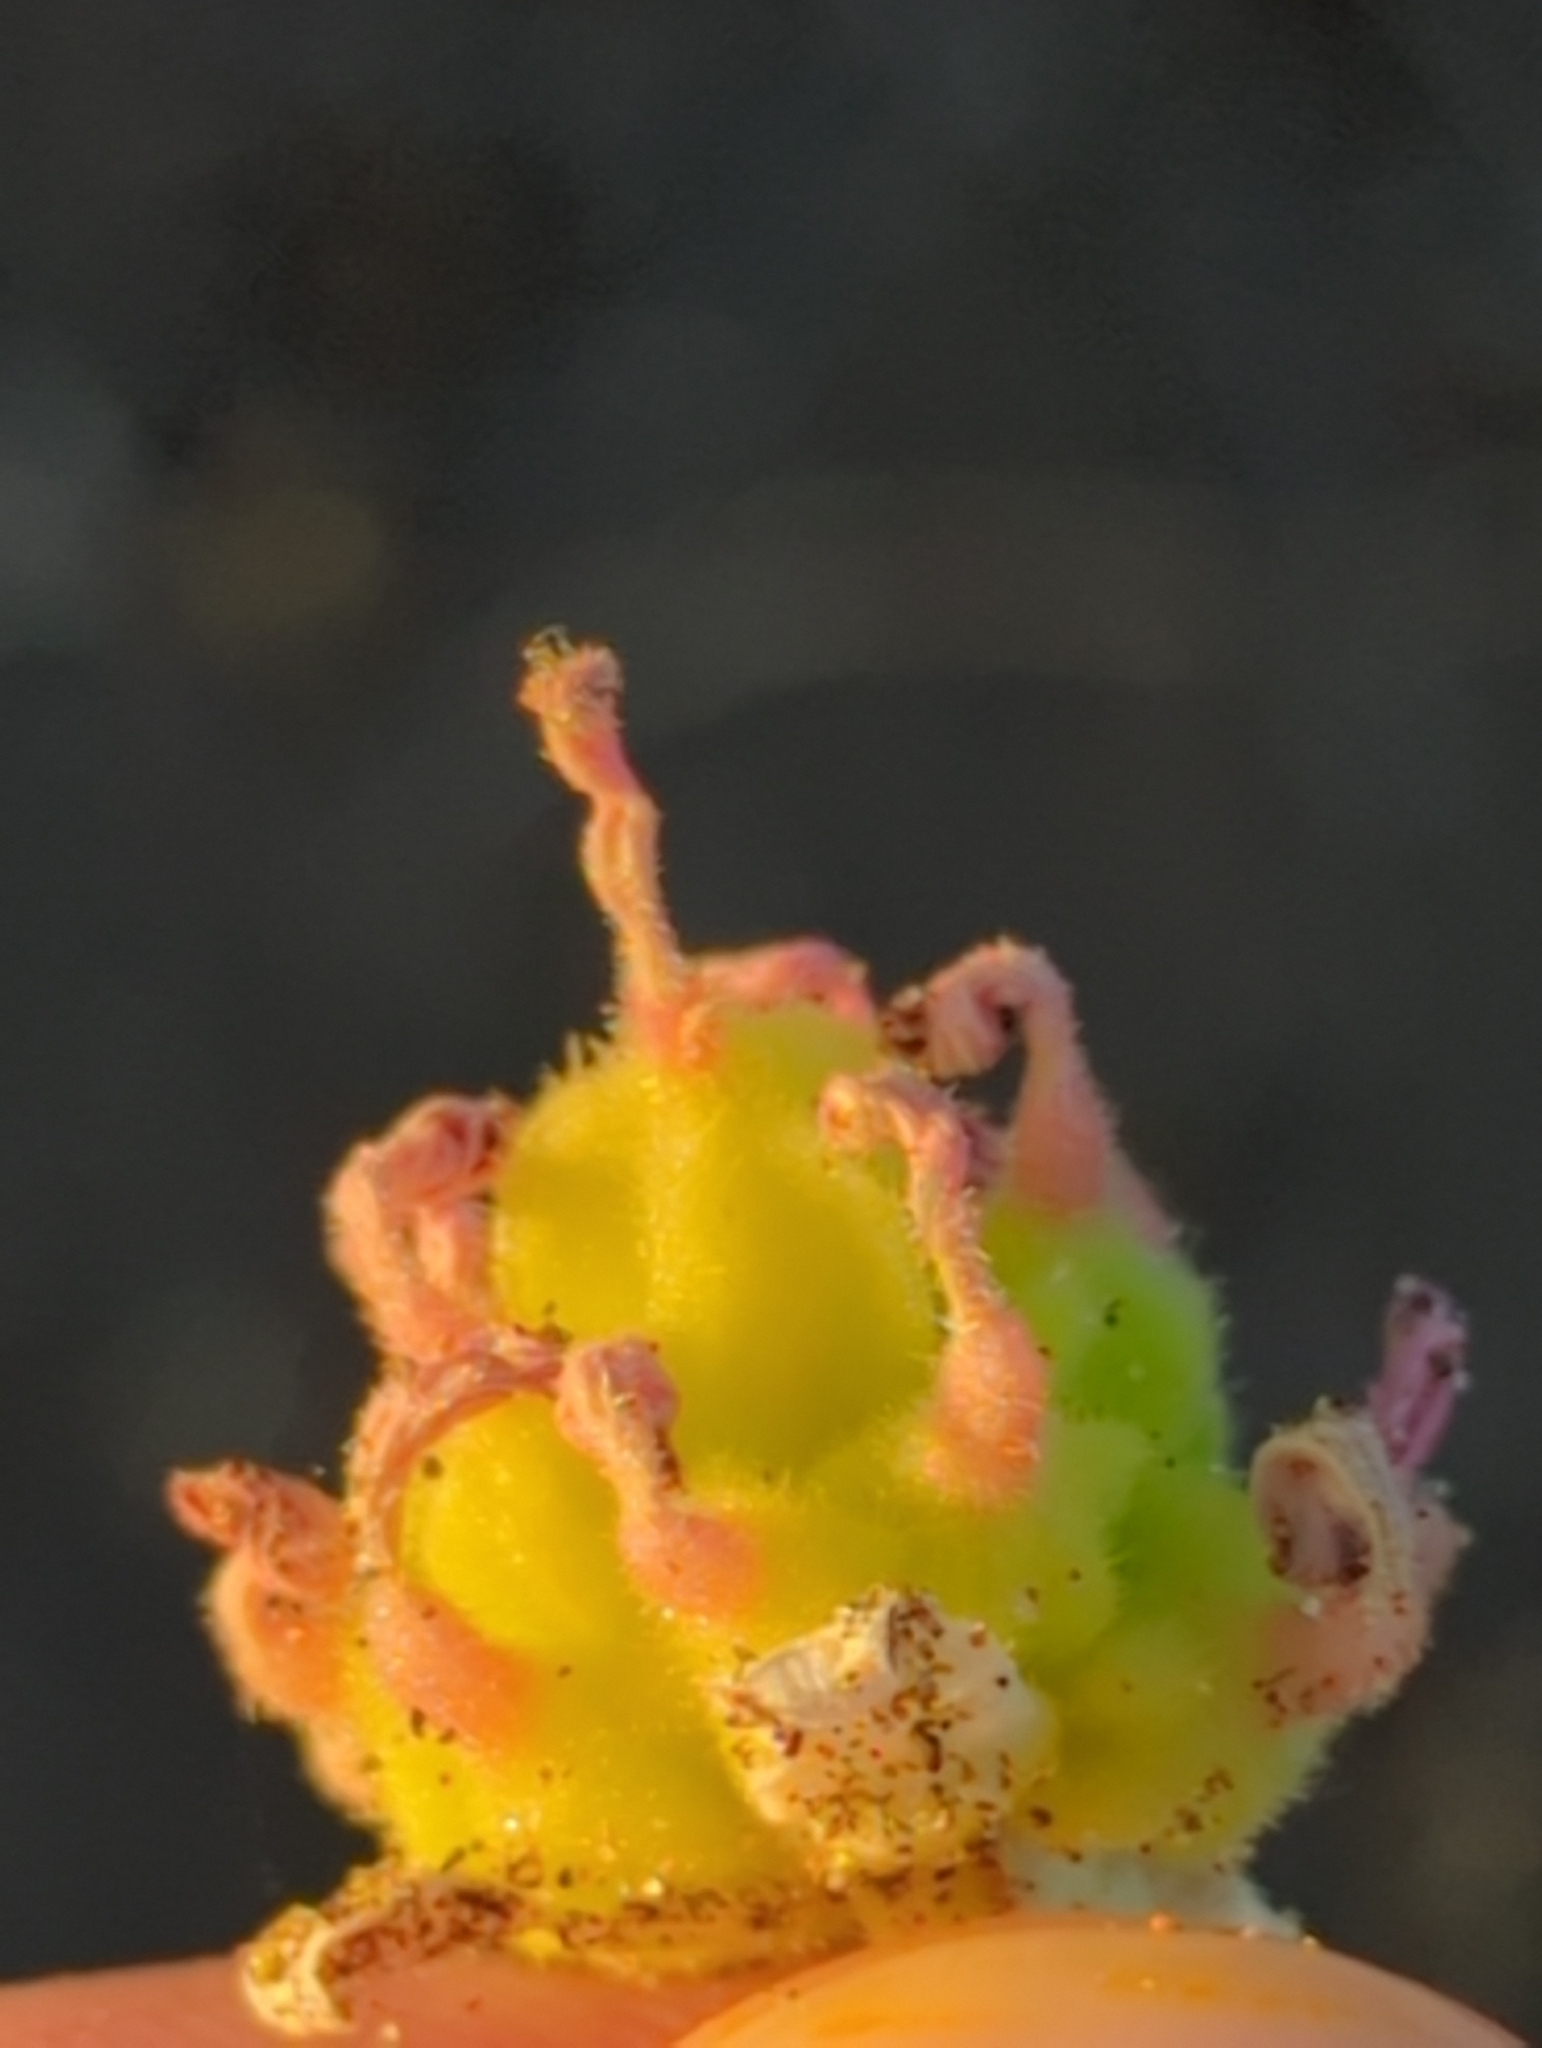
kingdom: Plantae
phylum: Tracheophyta
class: Magnoliopsida
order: Caryophyllales
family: Nyctaginaceae
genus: Abronia
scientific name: Abronia maritima
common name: Red sand-verbena
